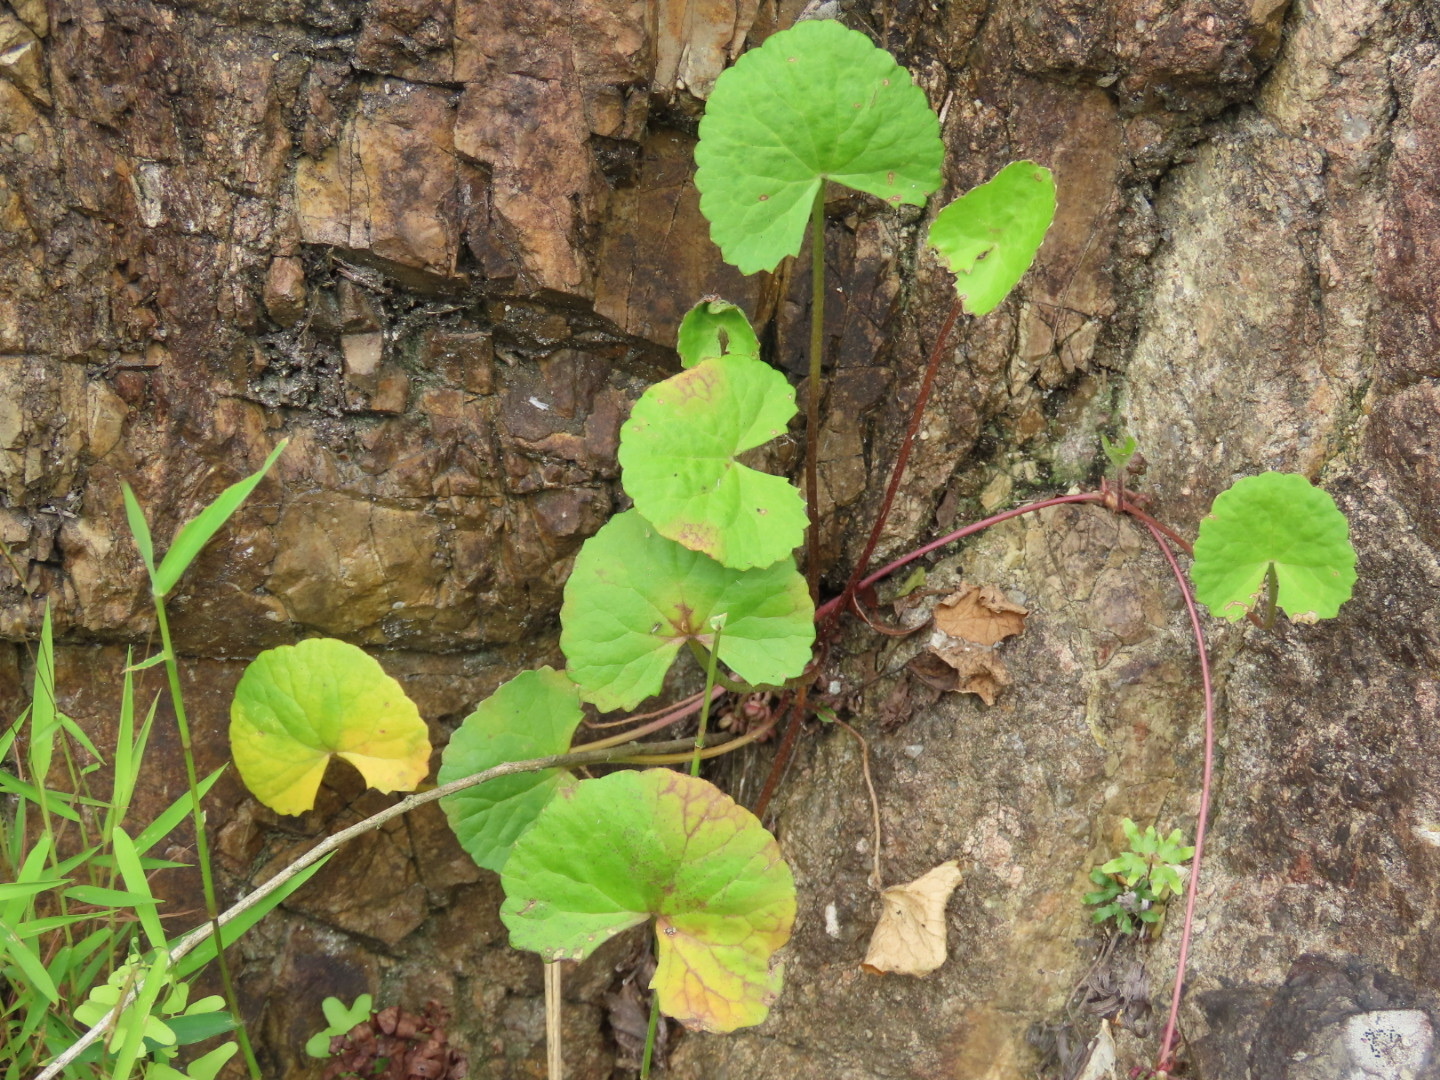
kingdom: Plantae
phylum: Tracheophyta
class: Magnoliopsida
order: Apiales
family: Apiaceae
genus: Centella
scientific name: Centella asiatica
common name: Spadeleaf
